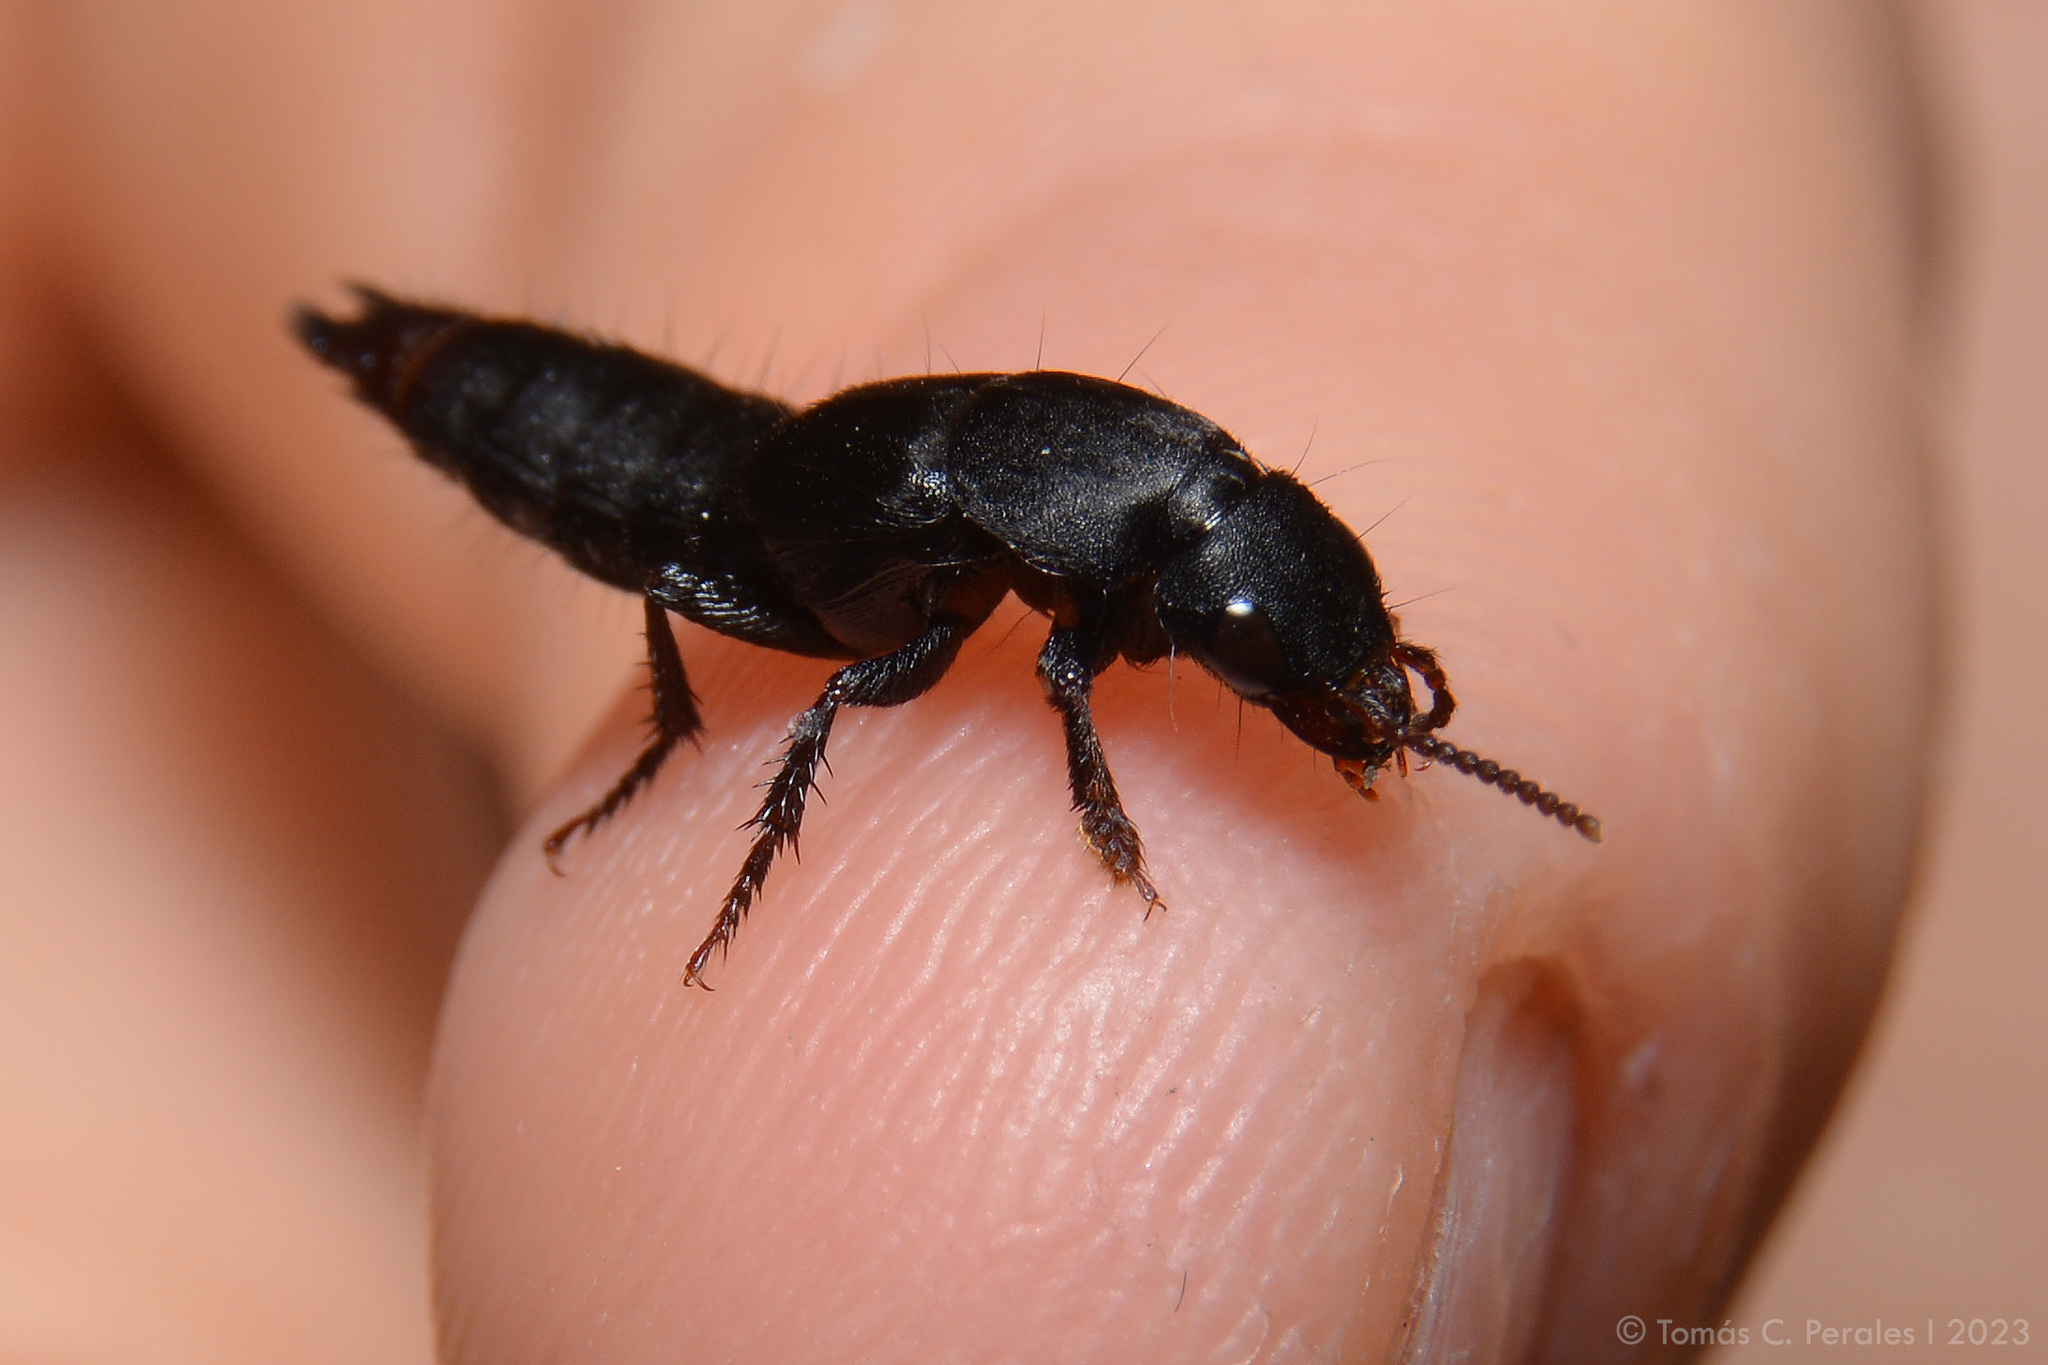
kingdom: Animalia
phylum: Arthropoda
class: Insecta
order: Coleoptera
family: Staphylinidae
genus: Platydracus
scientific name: Platydracus scabrosus
